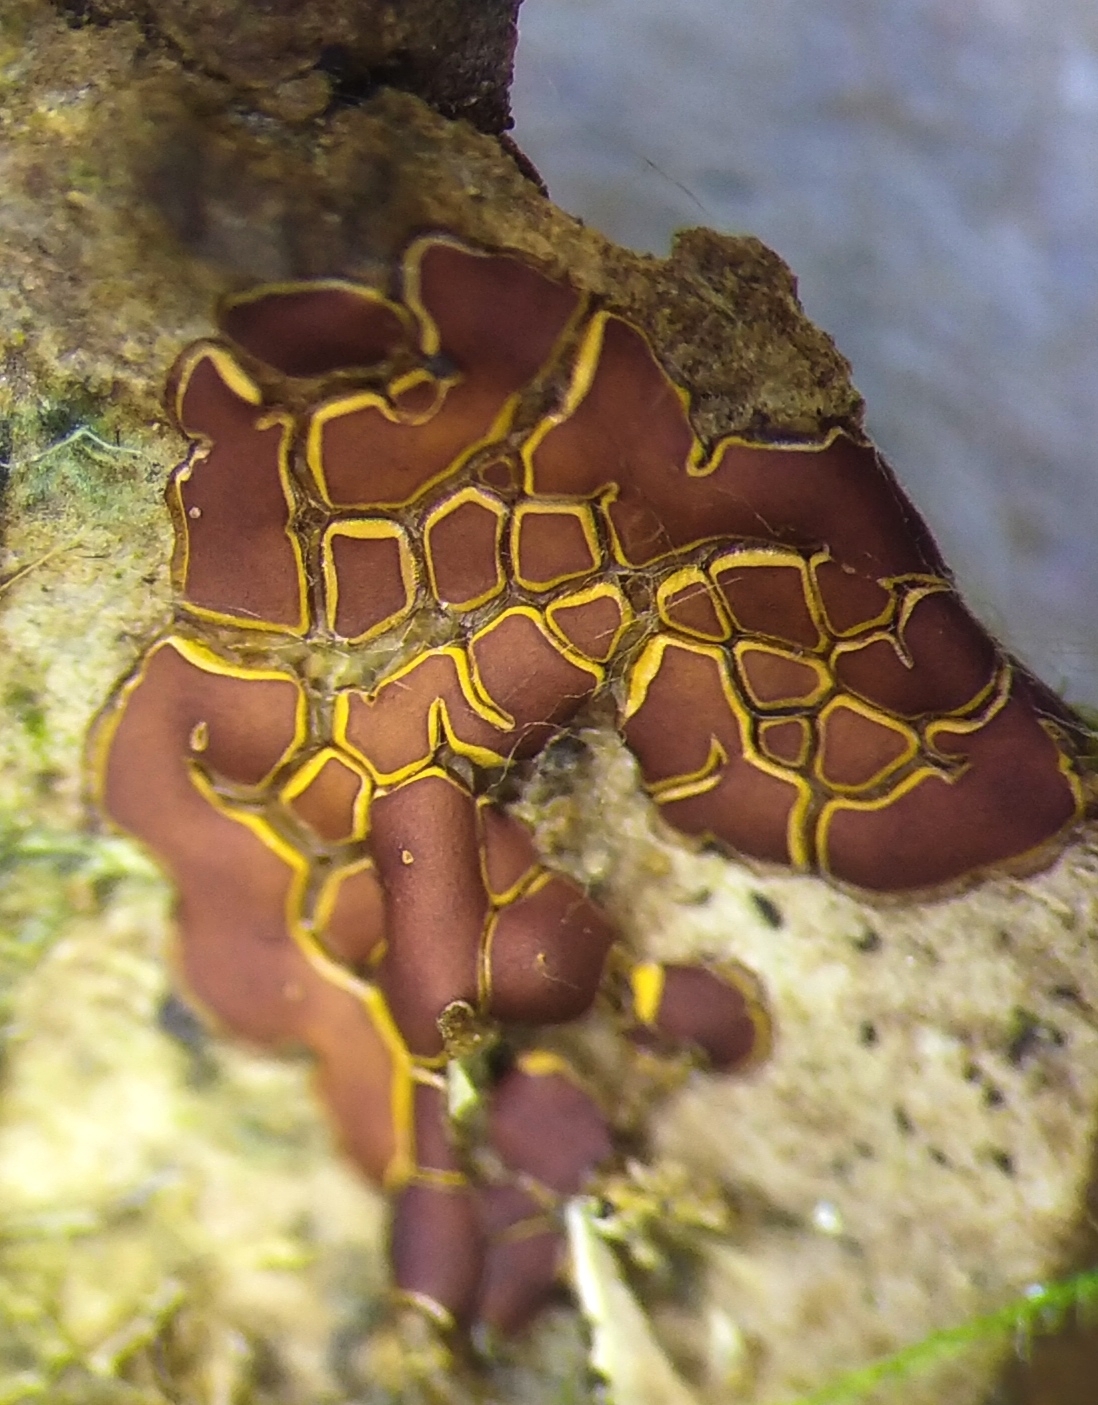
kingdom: Protozoa
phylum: Mycetozoa
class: Myxomycetes
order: Trichiales
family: Trichiaceae
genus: Perichaena
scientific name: Perichaena depressa
